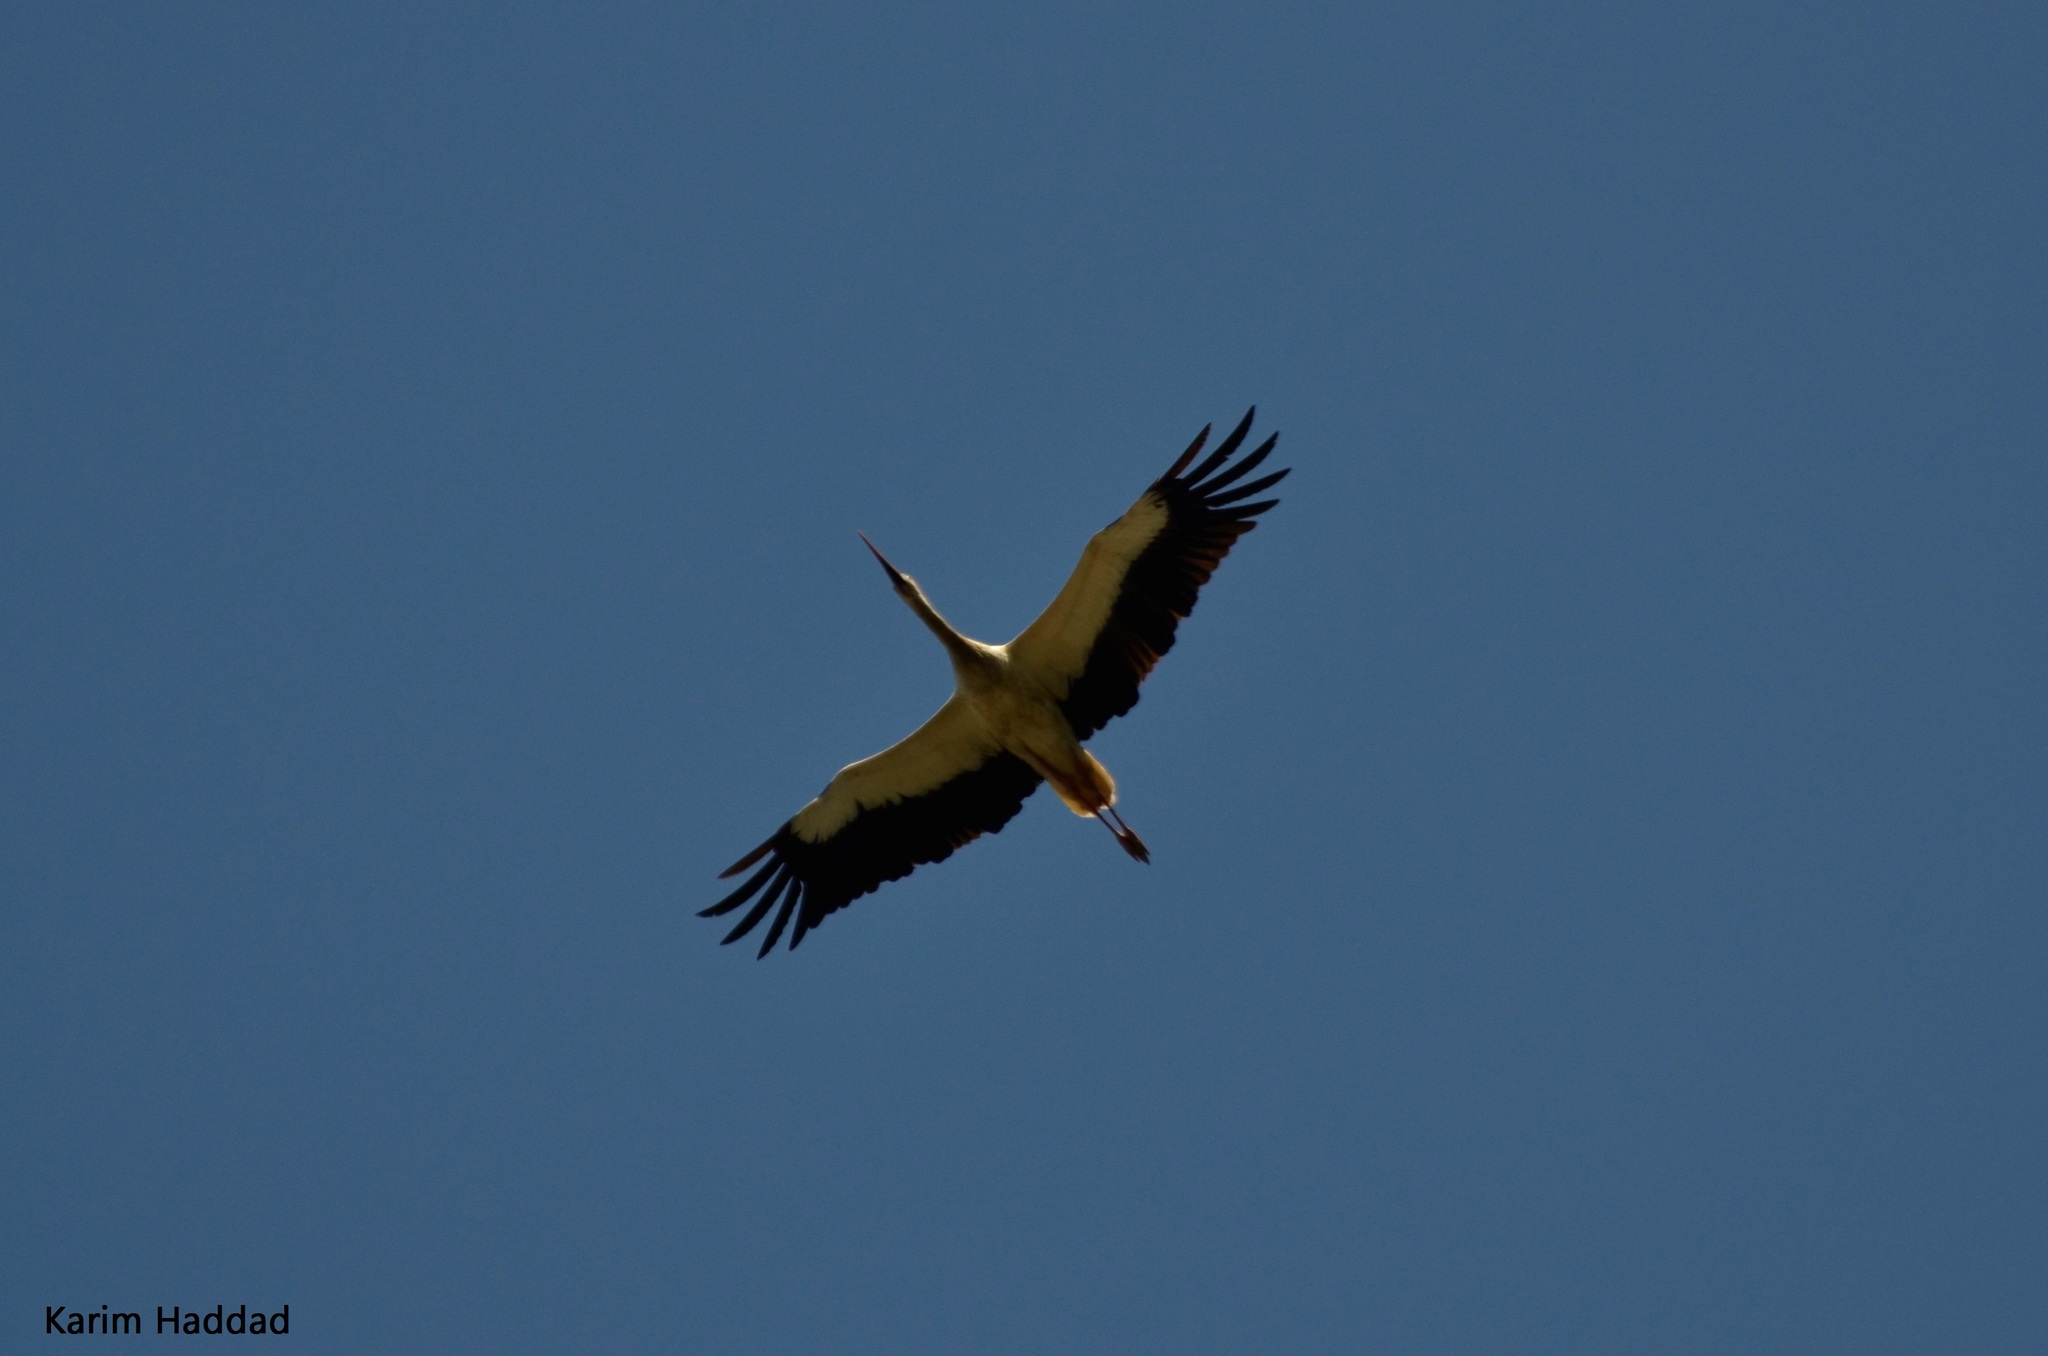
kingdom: Animalia
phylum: Chordata
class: Aves
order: Ciconiiformes
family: Ciconiidae
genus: Ciconia
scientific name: Ciconia ciconia
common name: White stork
